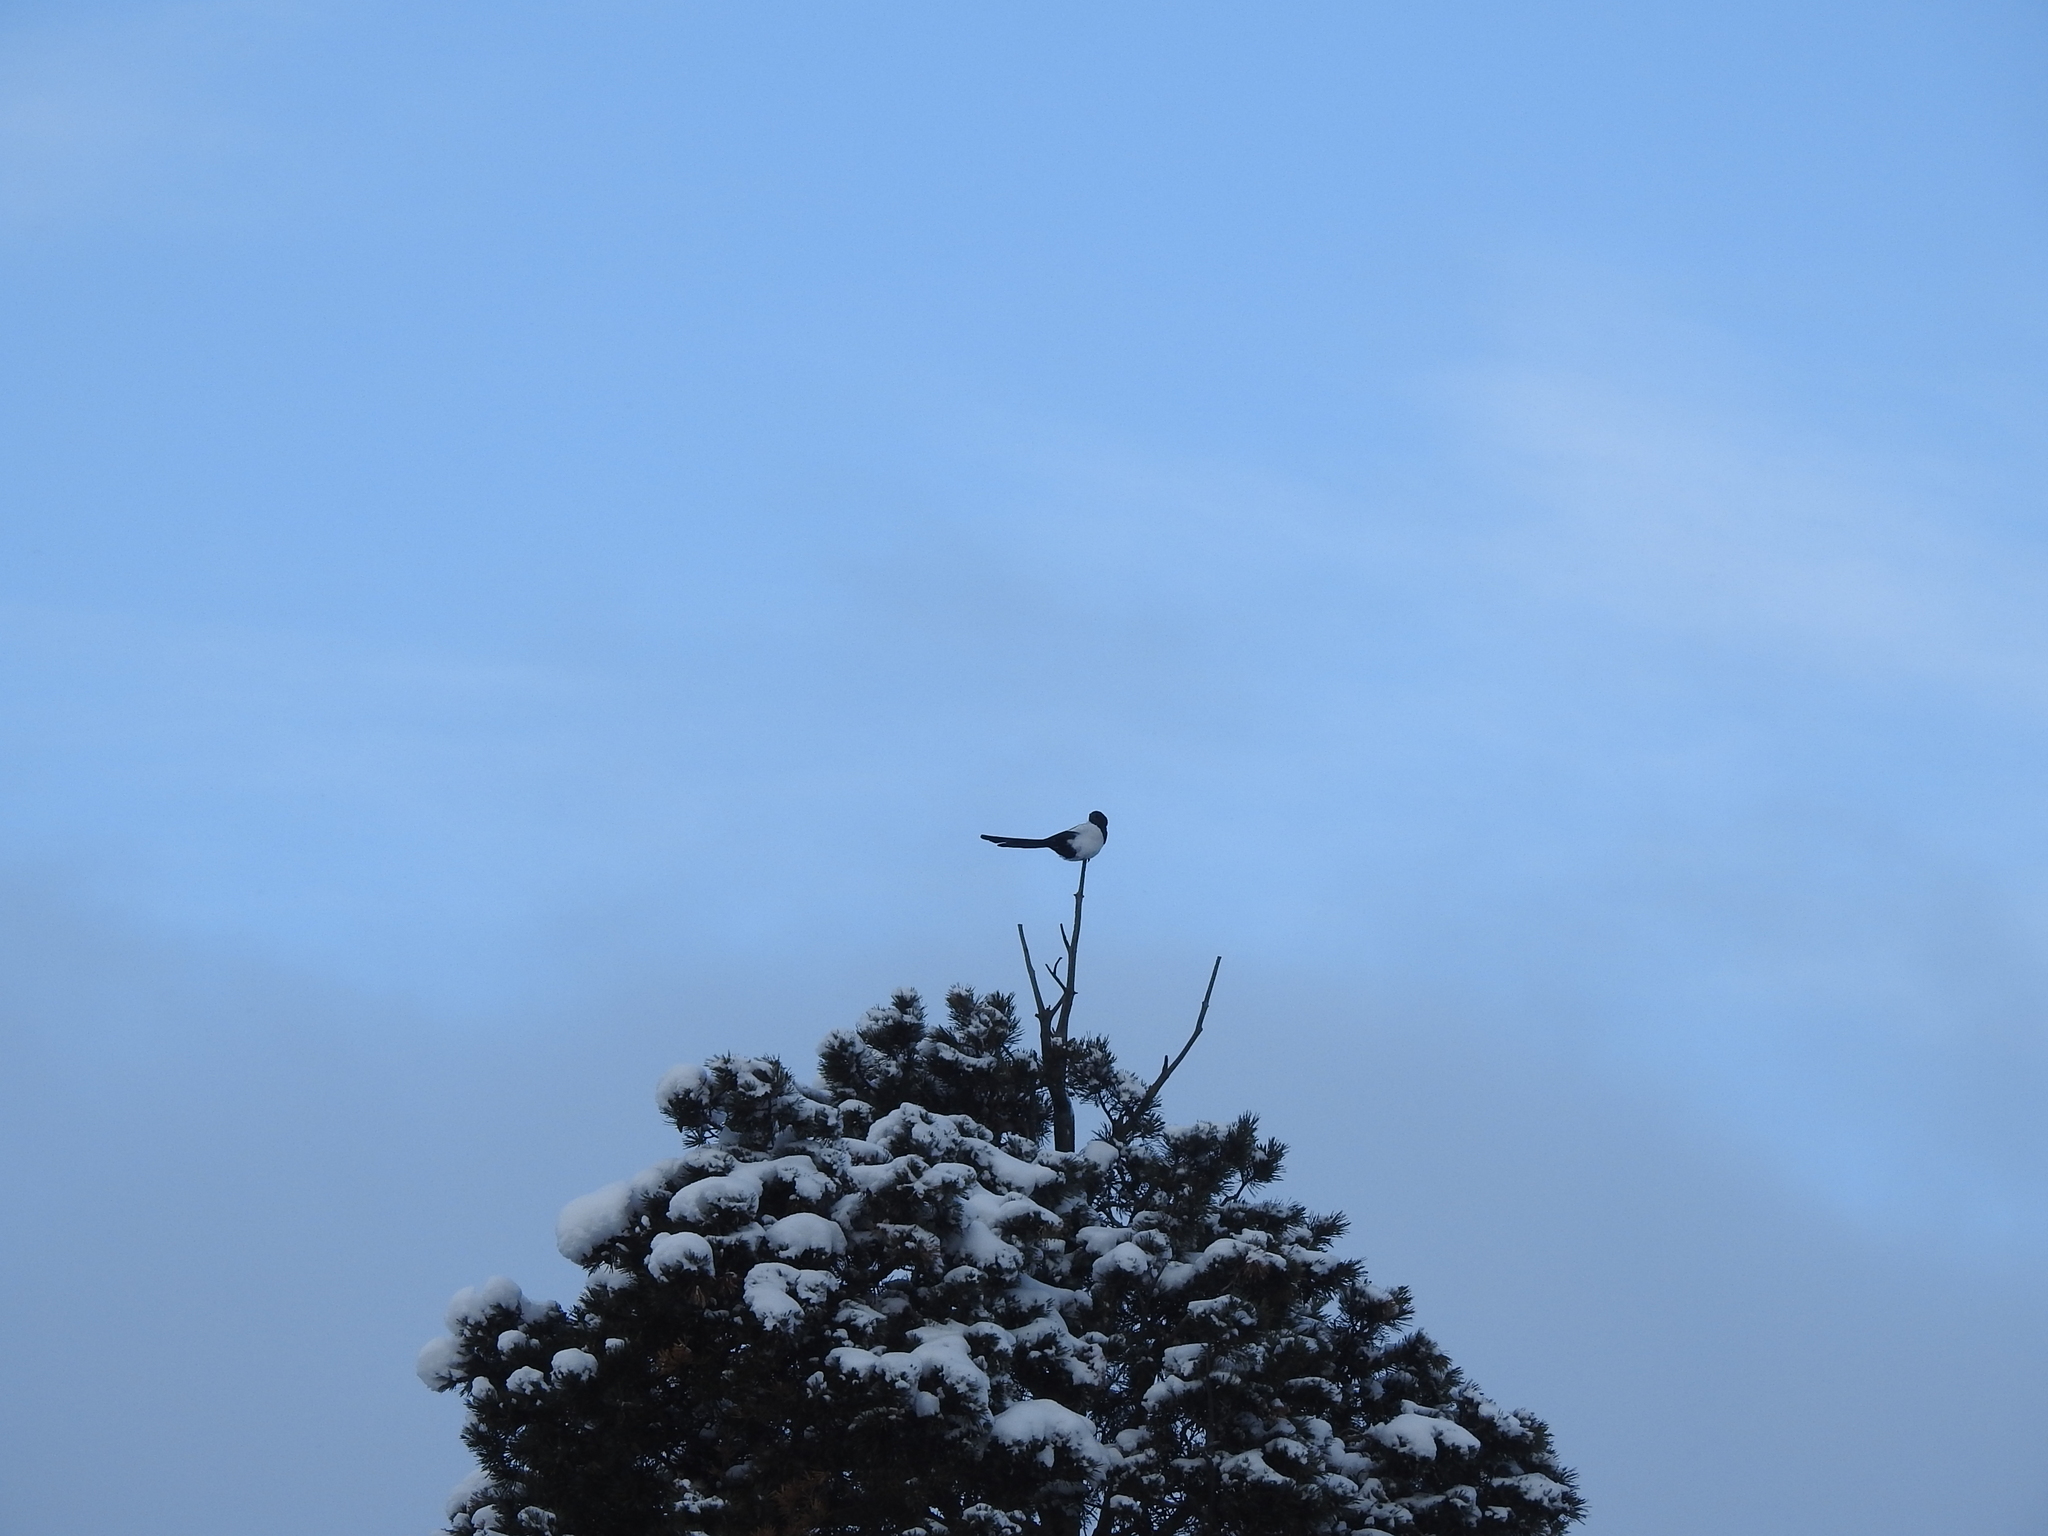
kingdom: Animalia
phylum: Chordata
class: Aves
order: Passeriformes
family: Corvidae
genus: Pica
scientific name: Pica pica
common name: Eurasian magpie
